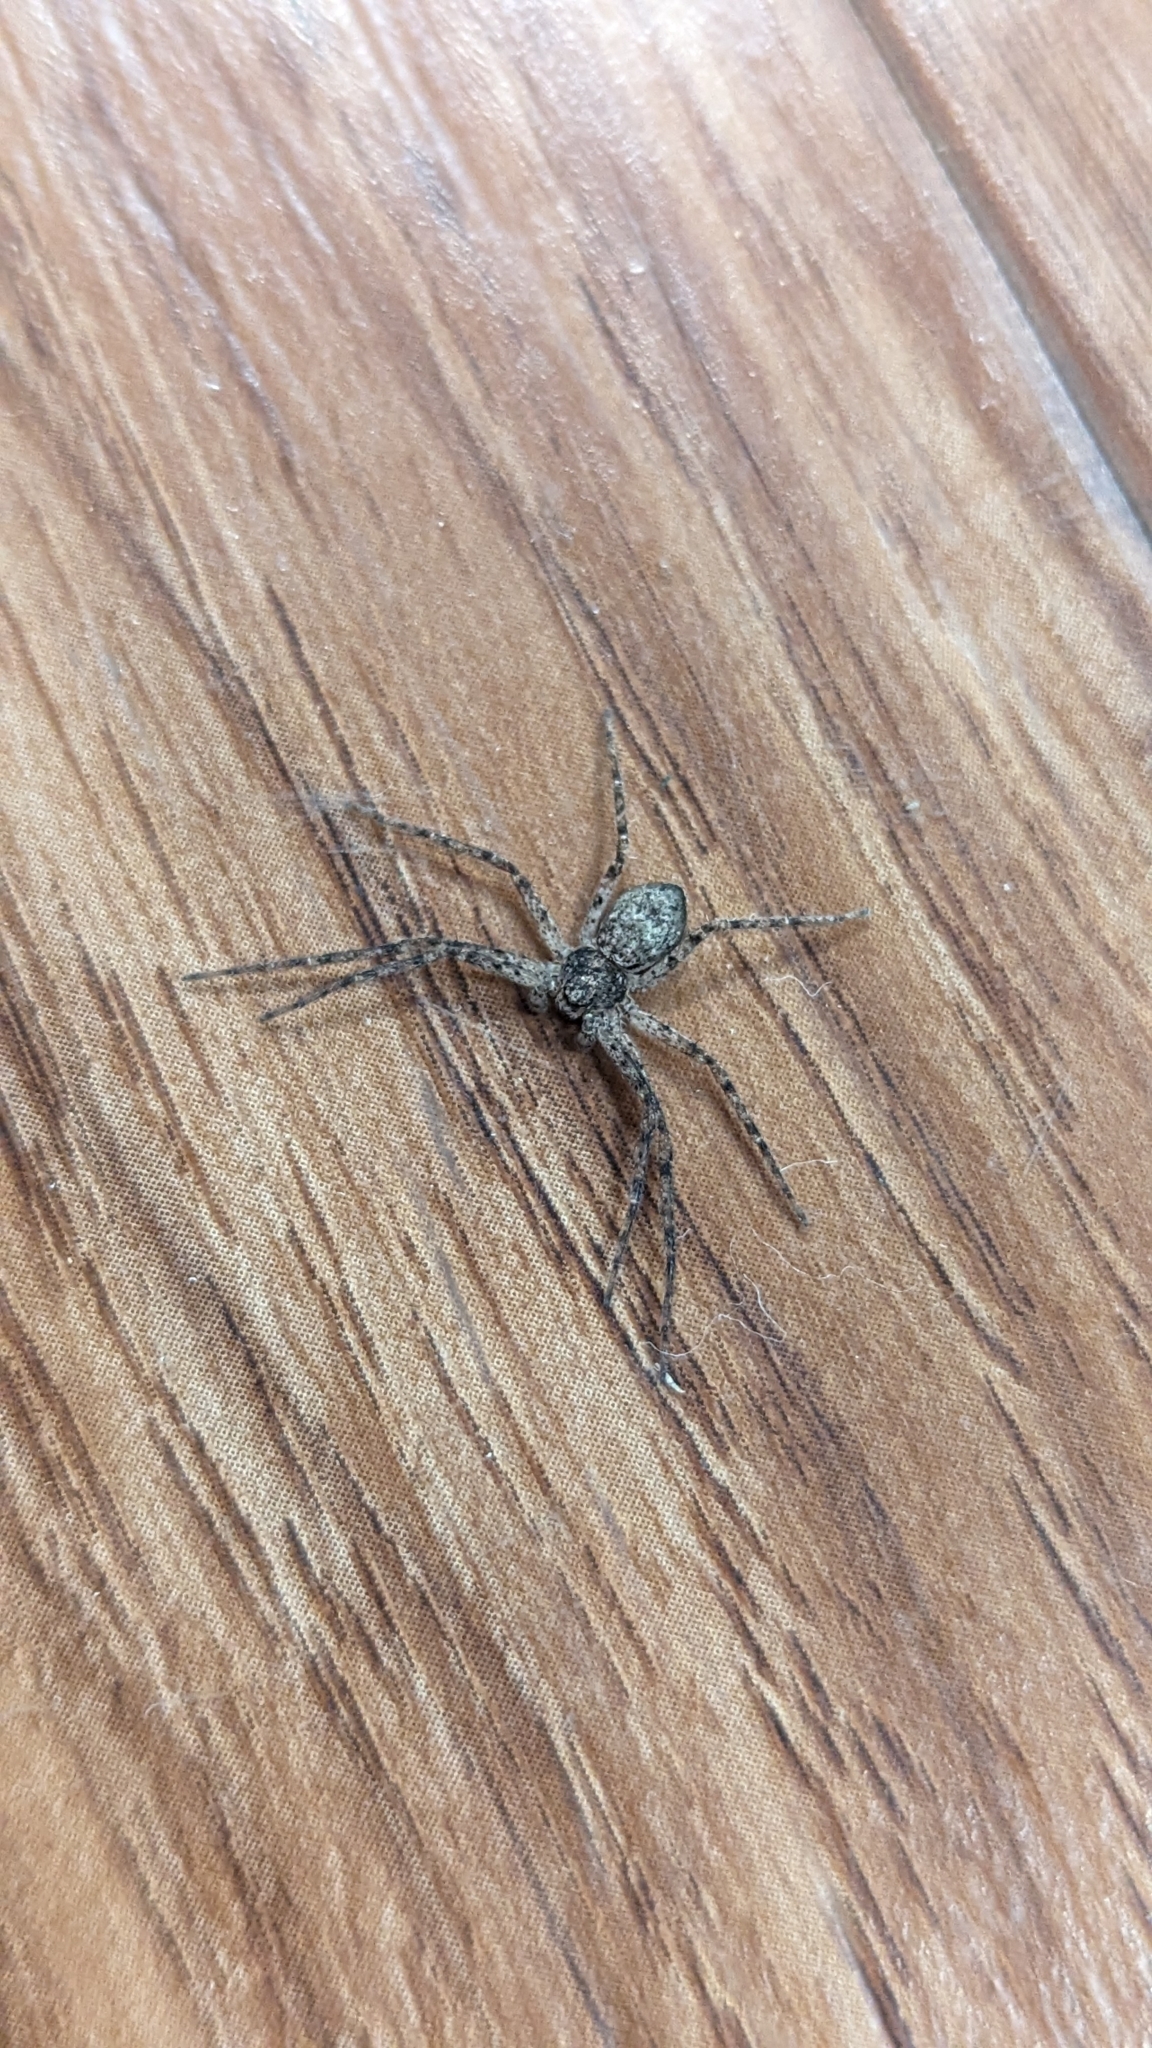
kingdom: Animalia
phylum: Arthropoda
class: Arachnida
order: Araneae
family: Philodromidae
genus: Philodromus
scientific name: Philodromus
